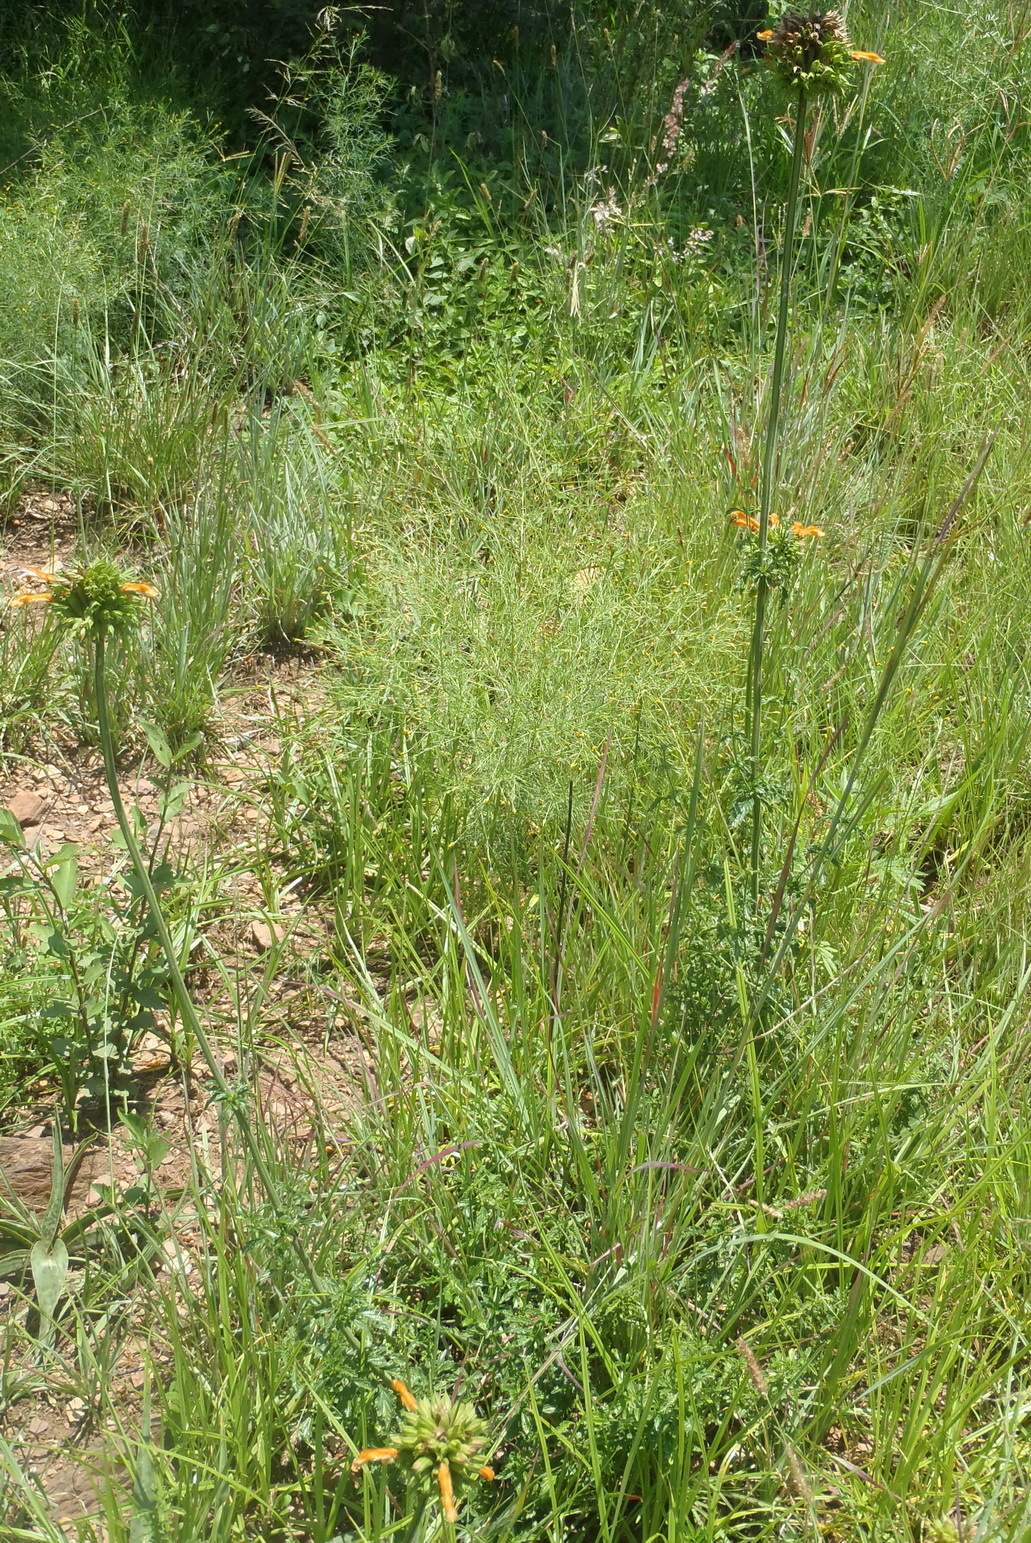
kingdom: Plantae
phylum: Tracheophyta
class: Magnoliopsida
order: Lamiales
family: Lamiaceae
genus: Leonotis
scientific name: Leonotis ocymifolia
